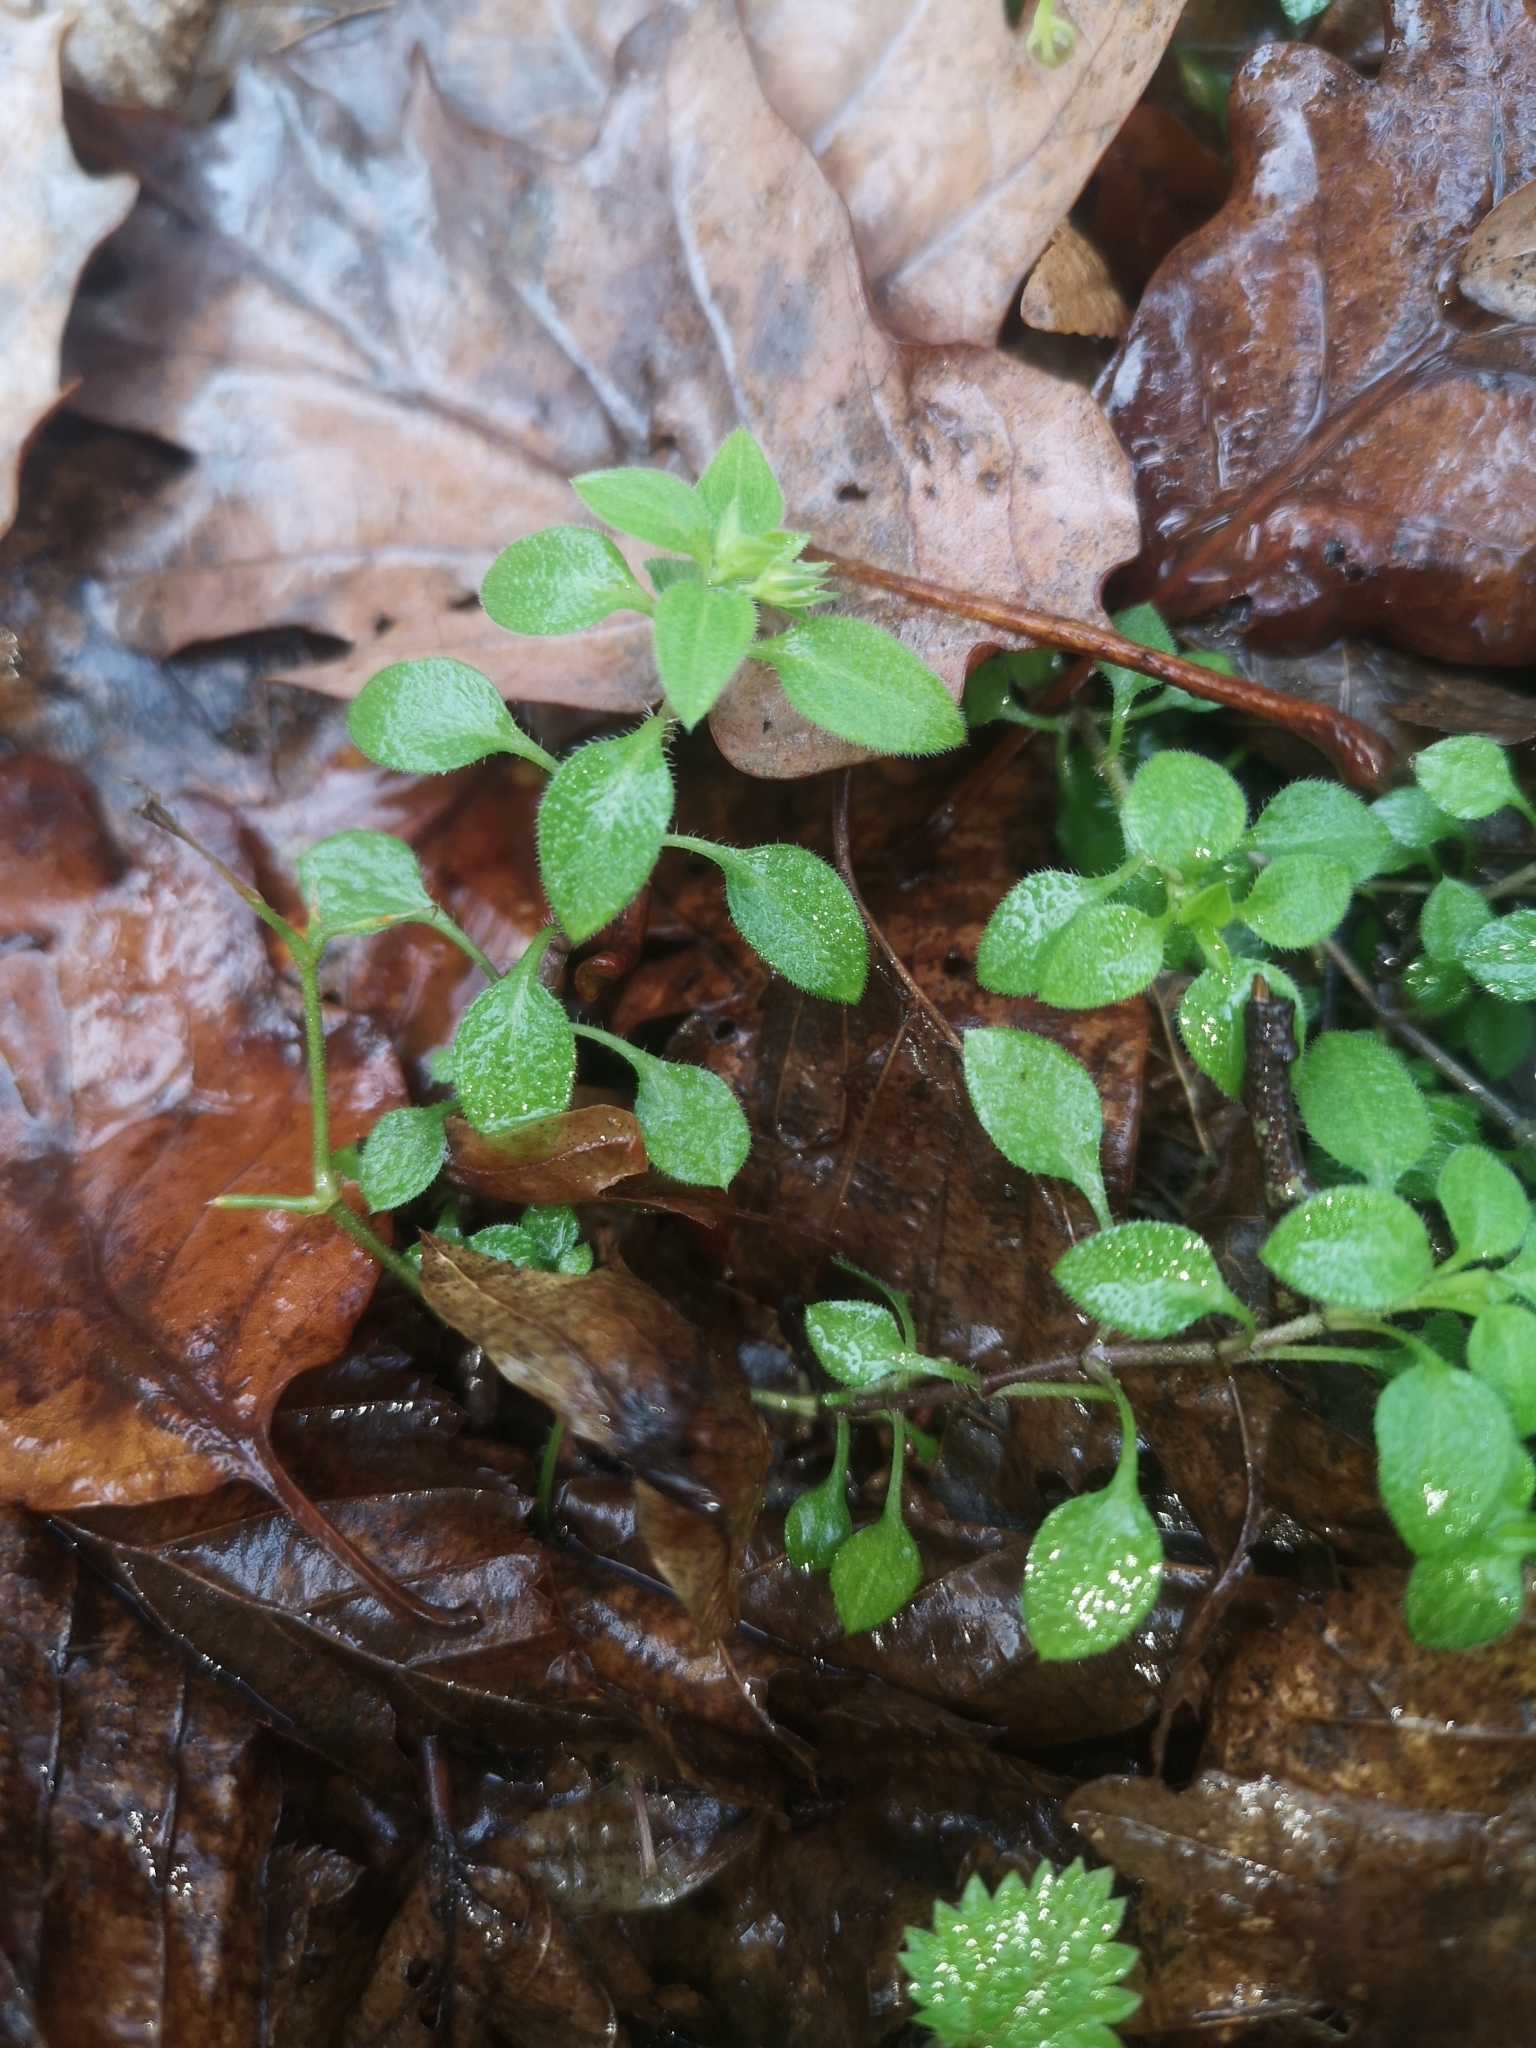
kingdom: Plantae
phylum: Tracheophyta
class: Magnoliopsida
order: Caryophyllales
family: Caryophyllaceae
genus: Moehringia
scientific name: Moehringia trinervia
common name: Three-nerved sandwort
